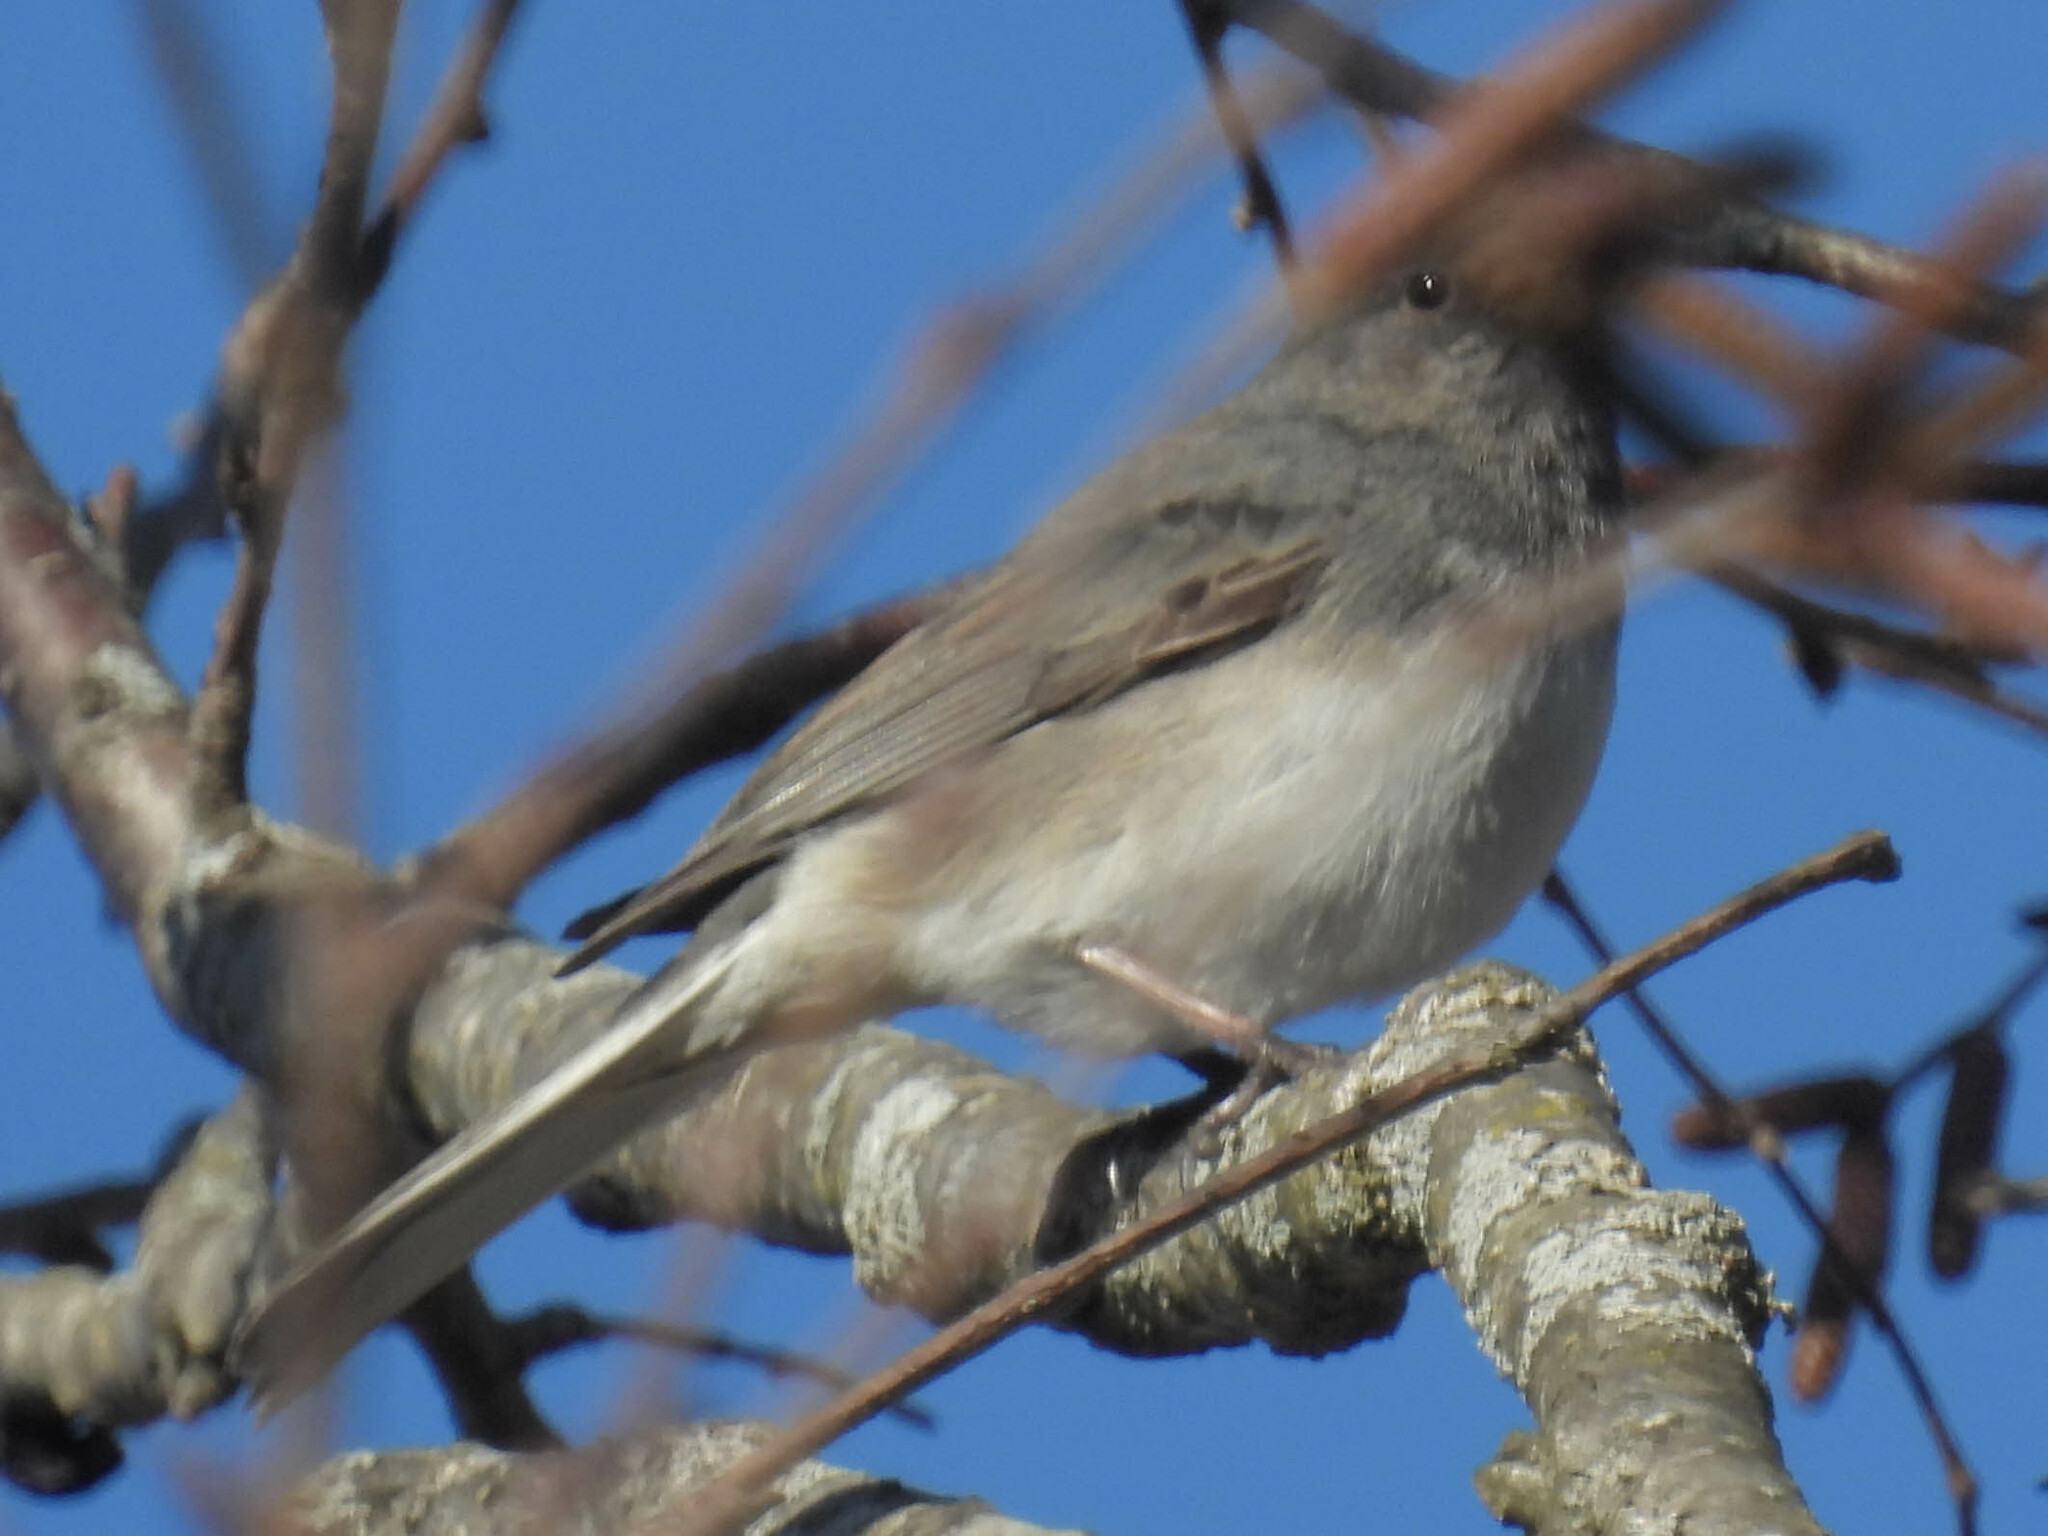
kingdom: Animalia
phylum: Chordata
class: Aves
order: Passeriformes
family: Passerellidae
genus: Junco
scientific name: Junco hyemalis
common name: Dark-eyed junco
